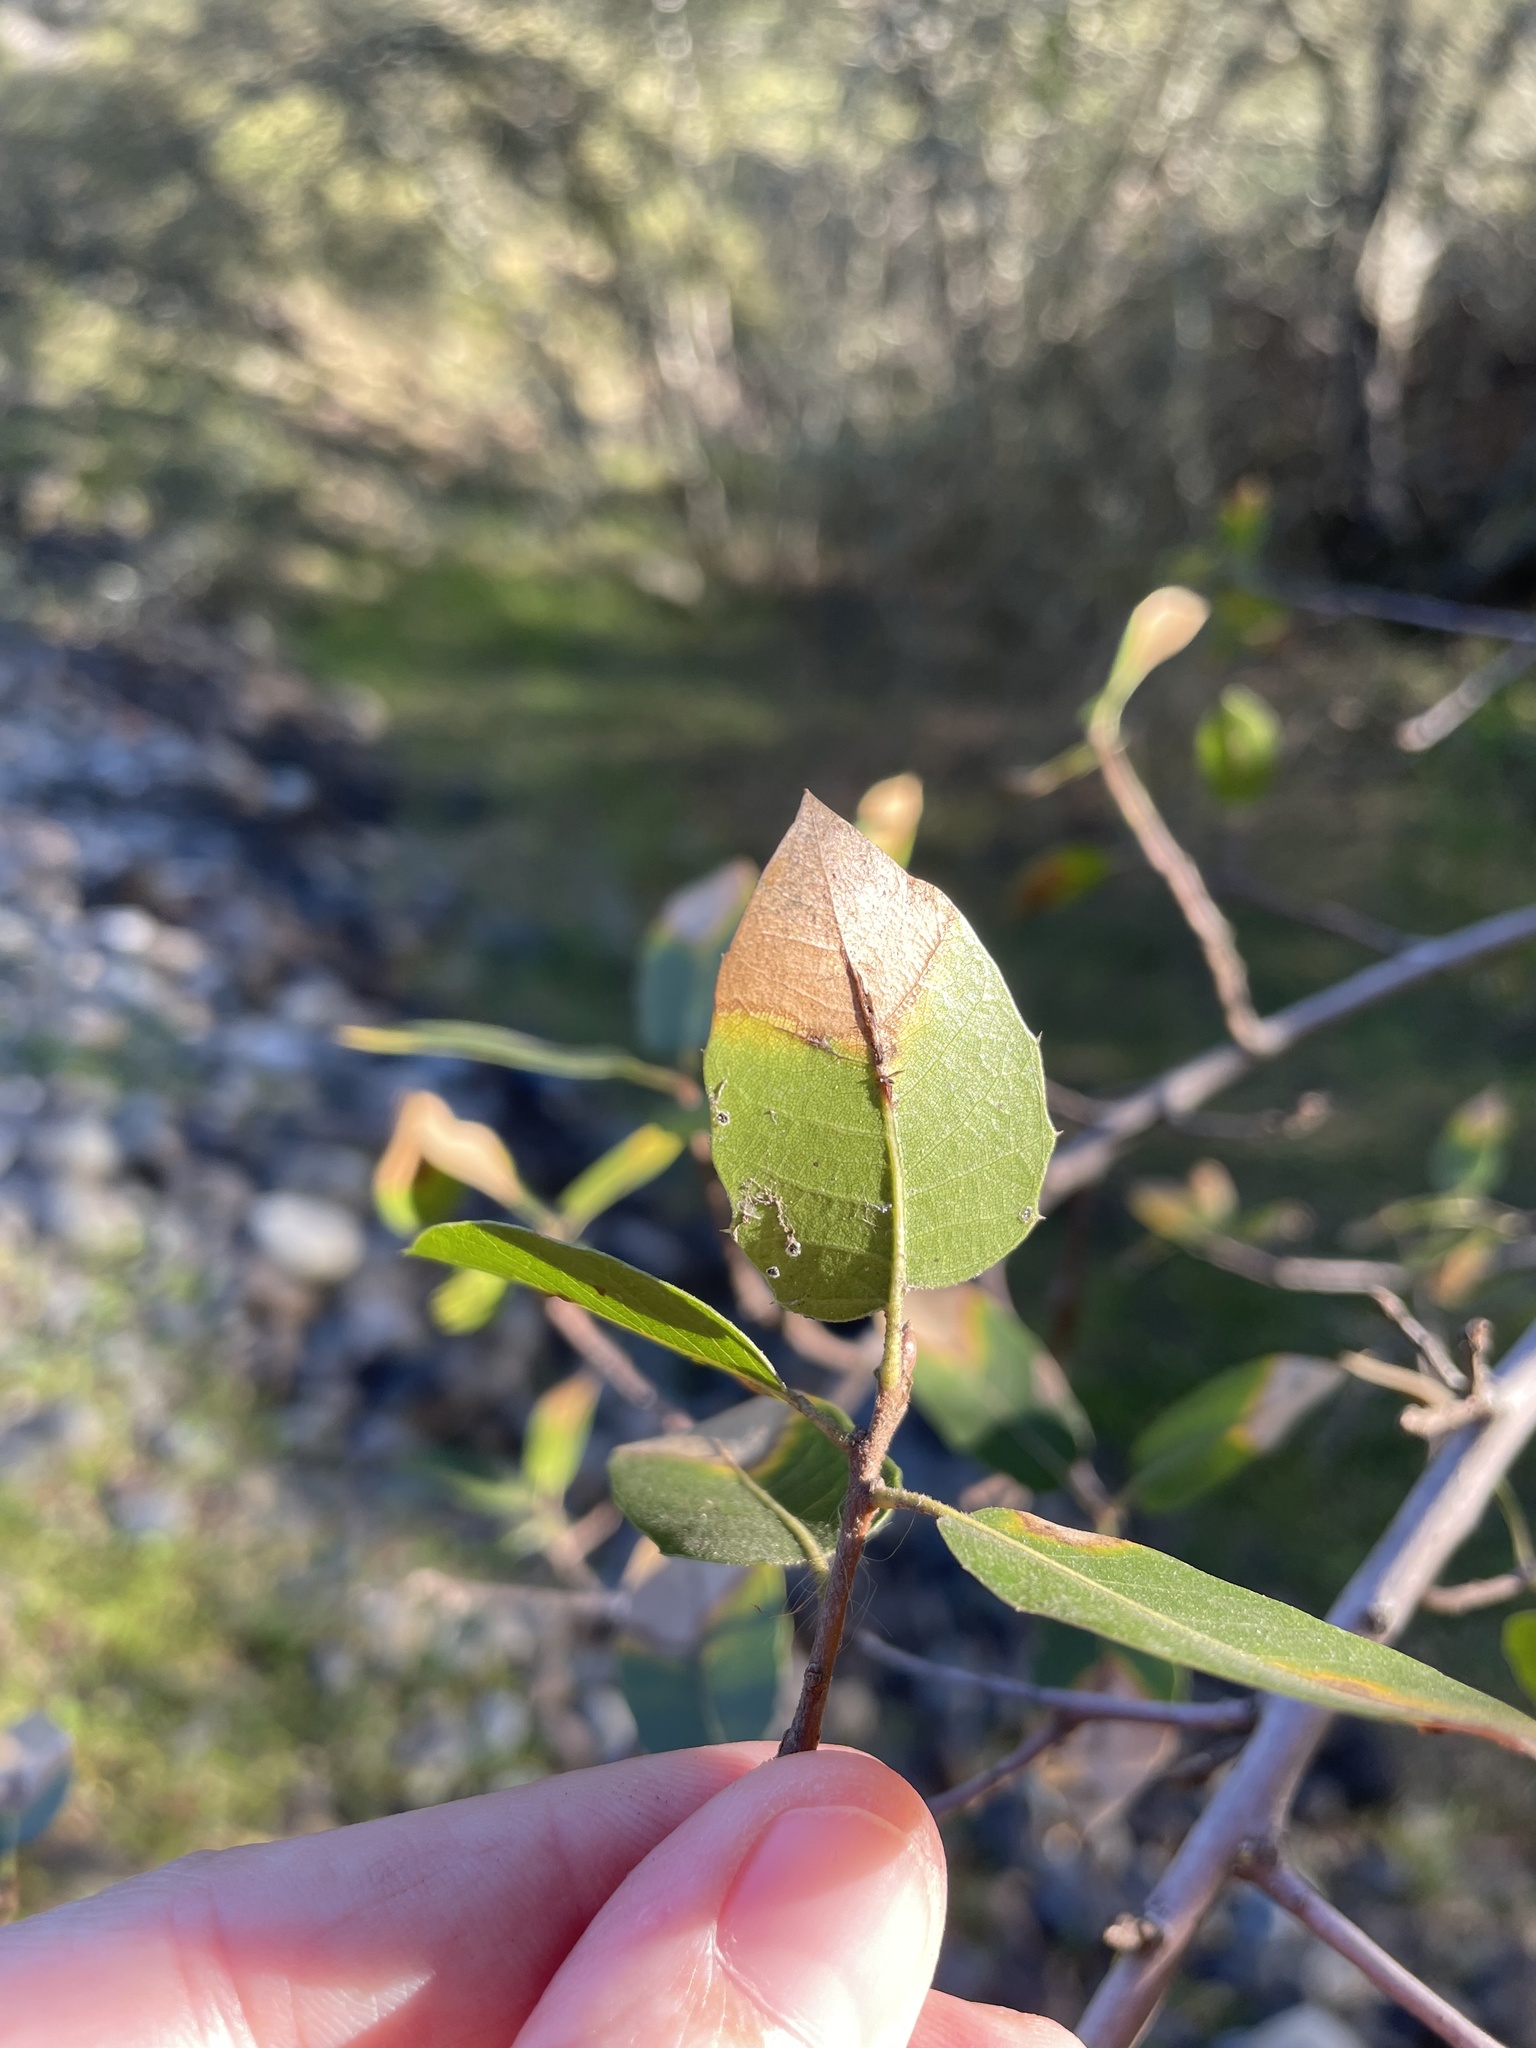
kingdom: Plantae
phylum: Tracheophyta
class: Magnoliopsida
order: Fagales
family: Fagaceae
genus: Quercus
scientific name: Quercus wislizeni
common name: Interior live oak
